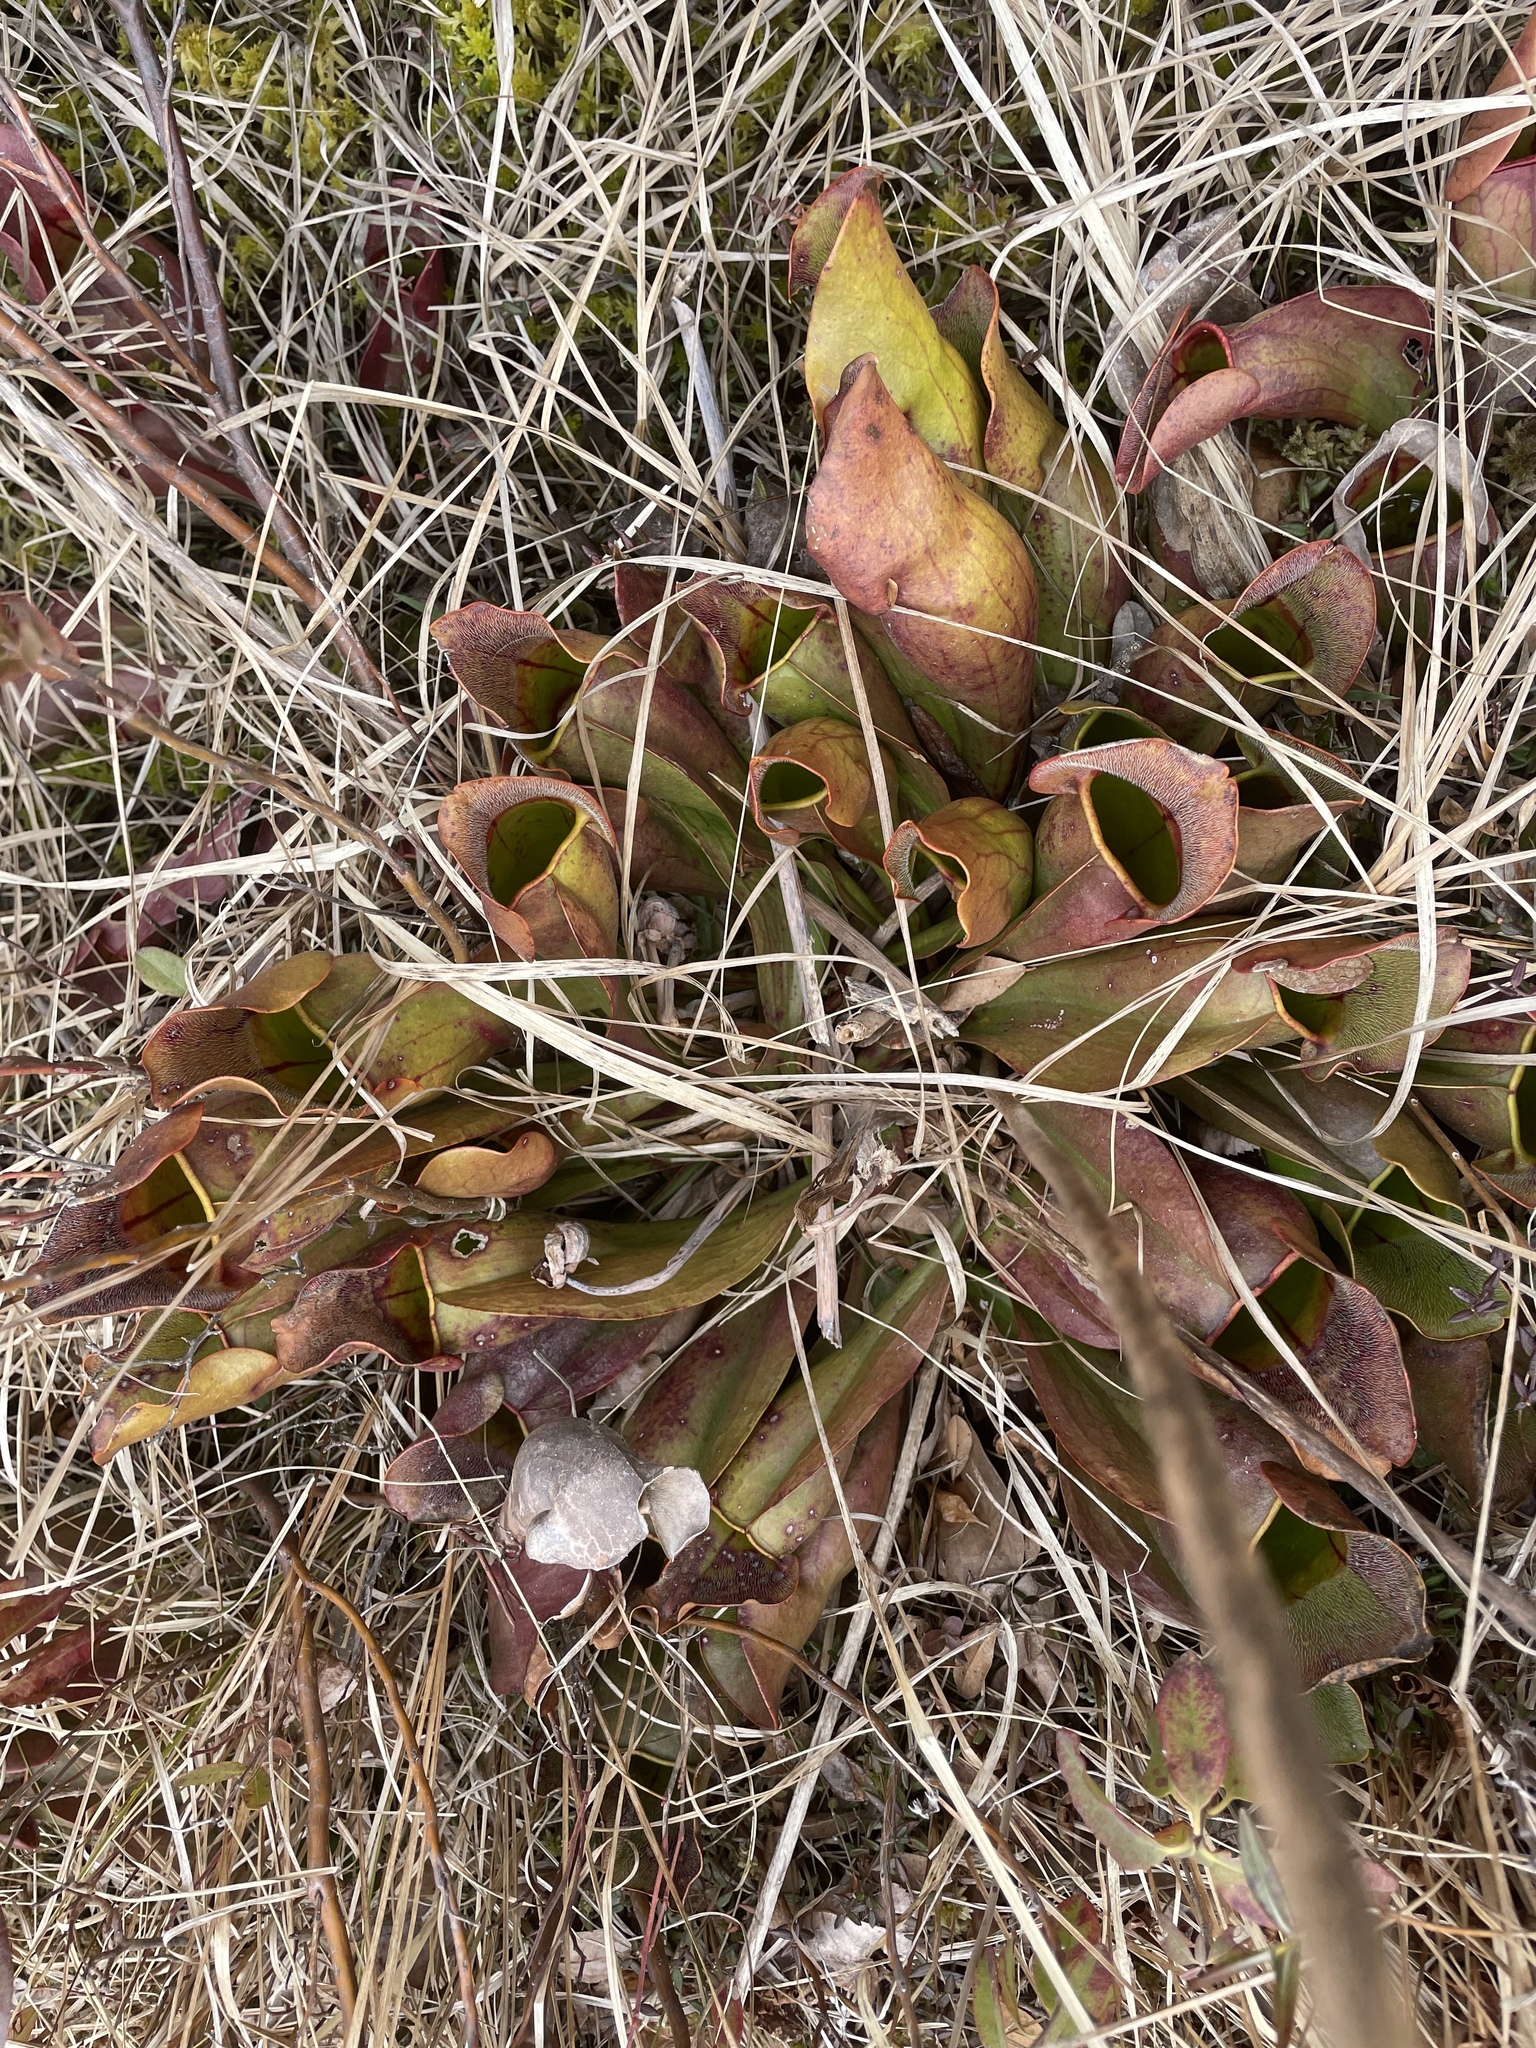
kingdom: Plantae
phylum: Tracheophyta
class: Magnoliopsida
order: Ericales
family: Sarraceniaceae
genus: Sarracenia
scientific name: Sarracenia purpurea
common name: Pitcherplant
